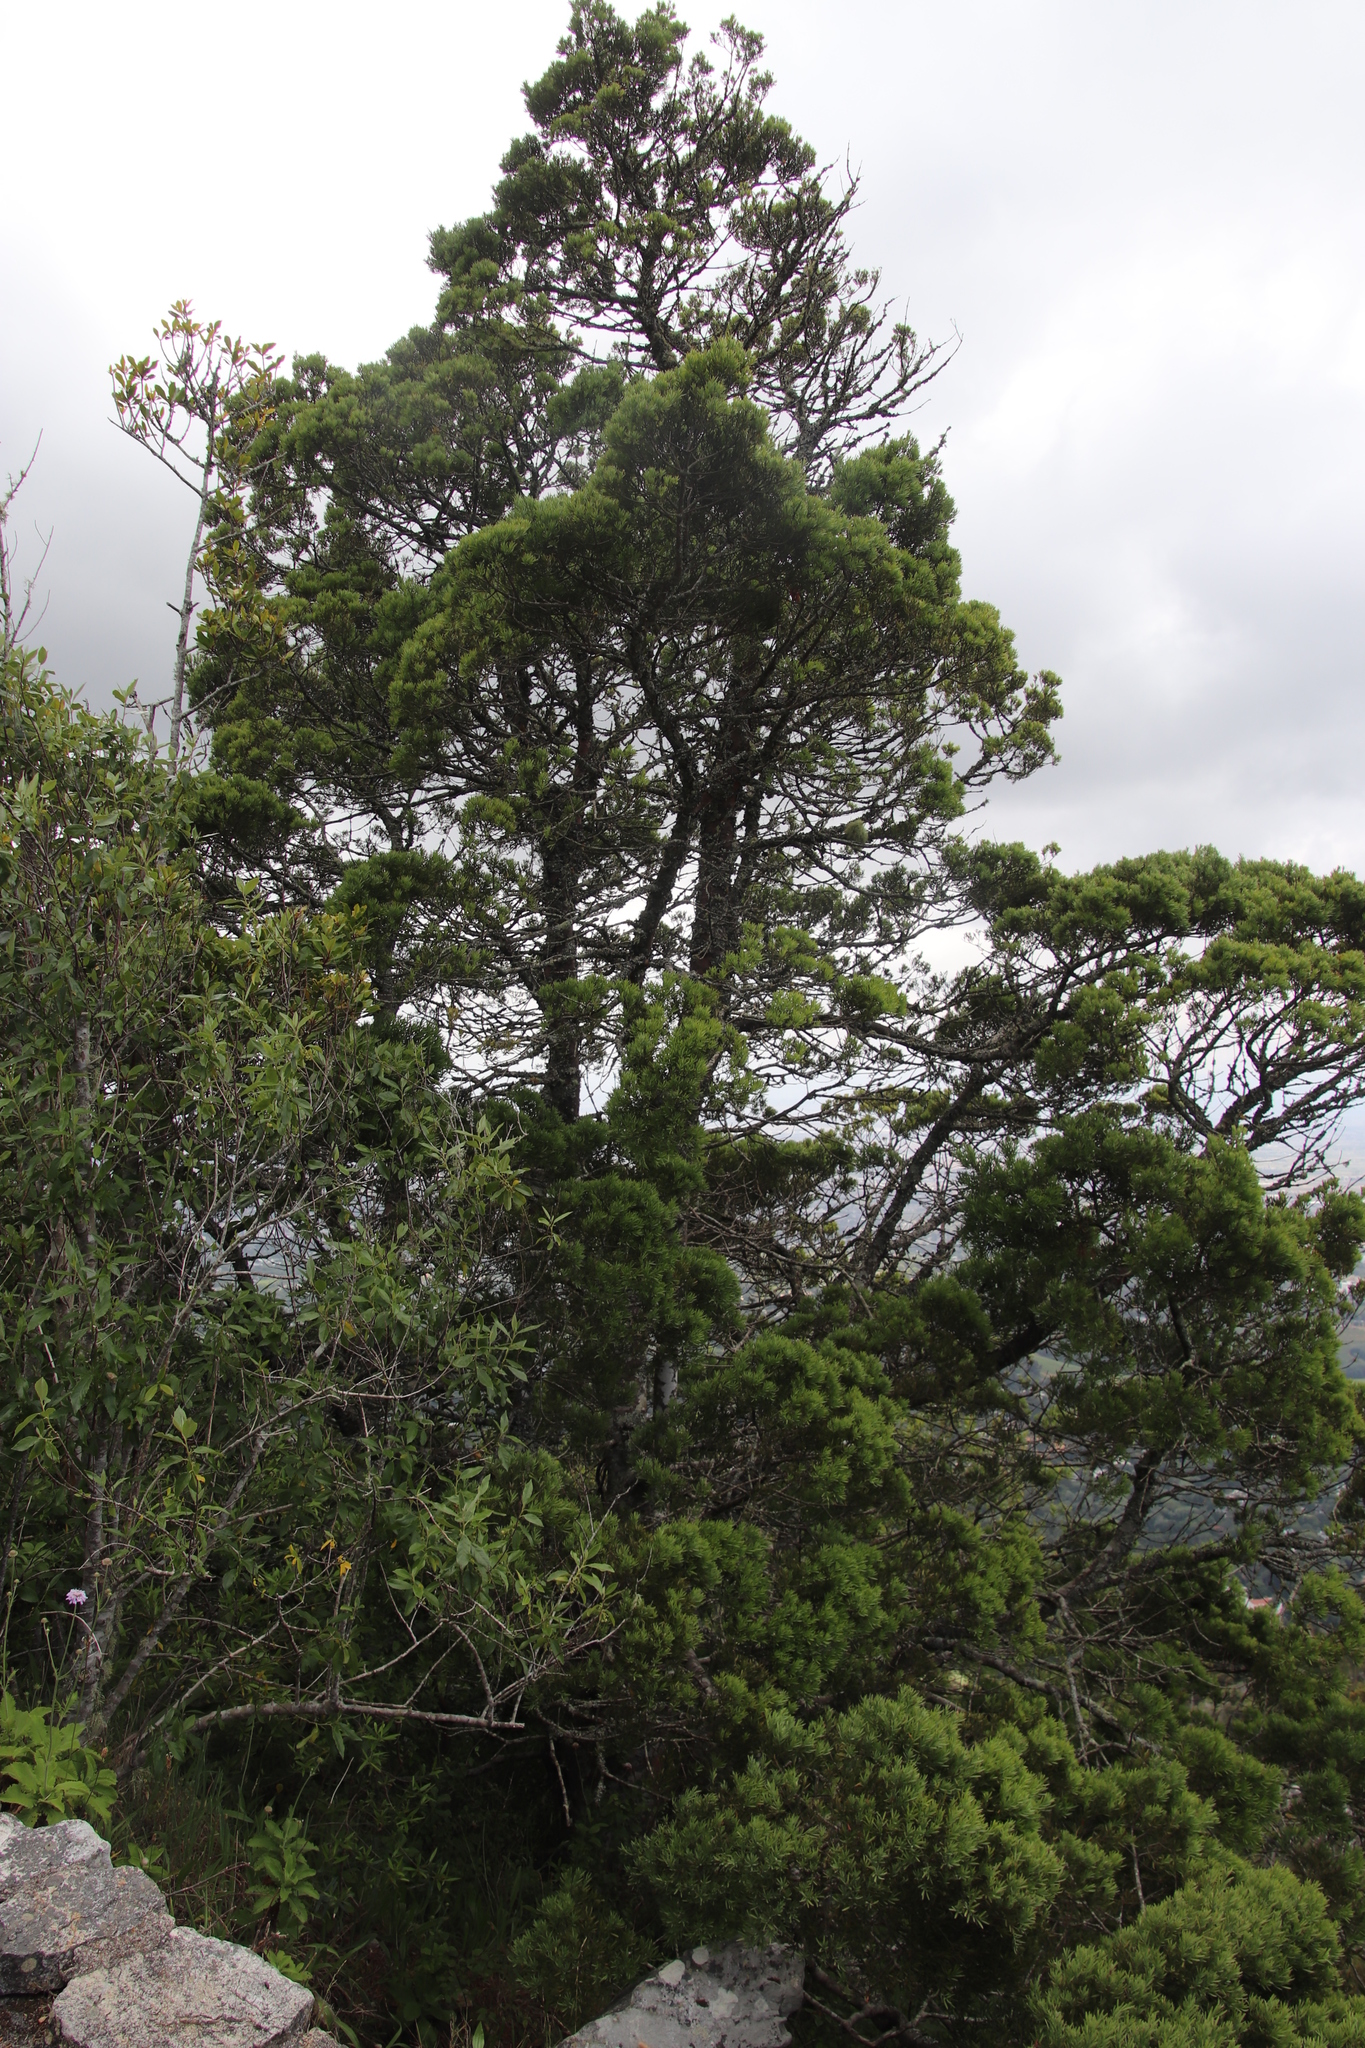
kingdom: Plantae
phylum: Tracheophyta
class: Pinopsida
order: Pinales
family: Podocarpaceae
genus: Afrocarpus
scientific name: Afrocarpus falcatus
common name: Bastard yellowwood
